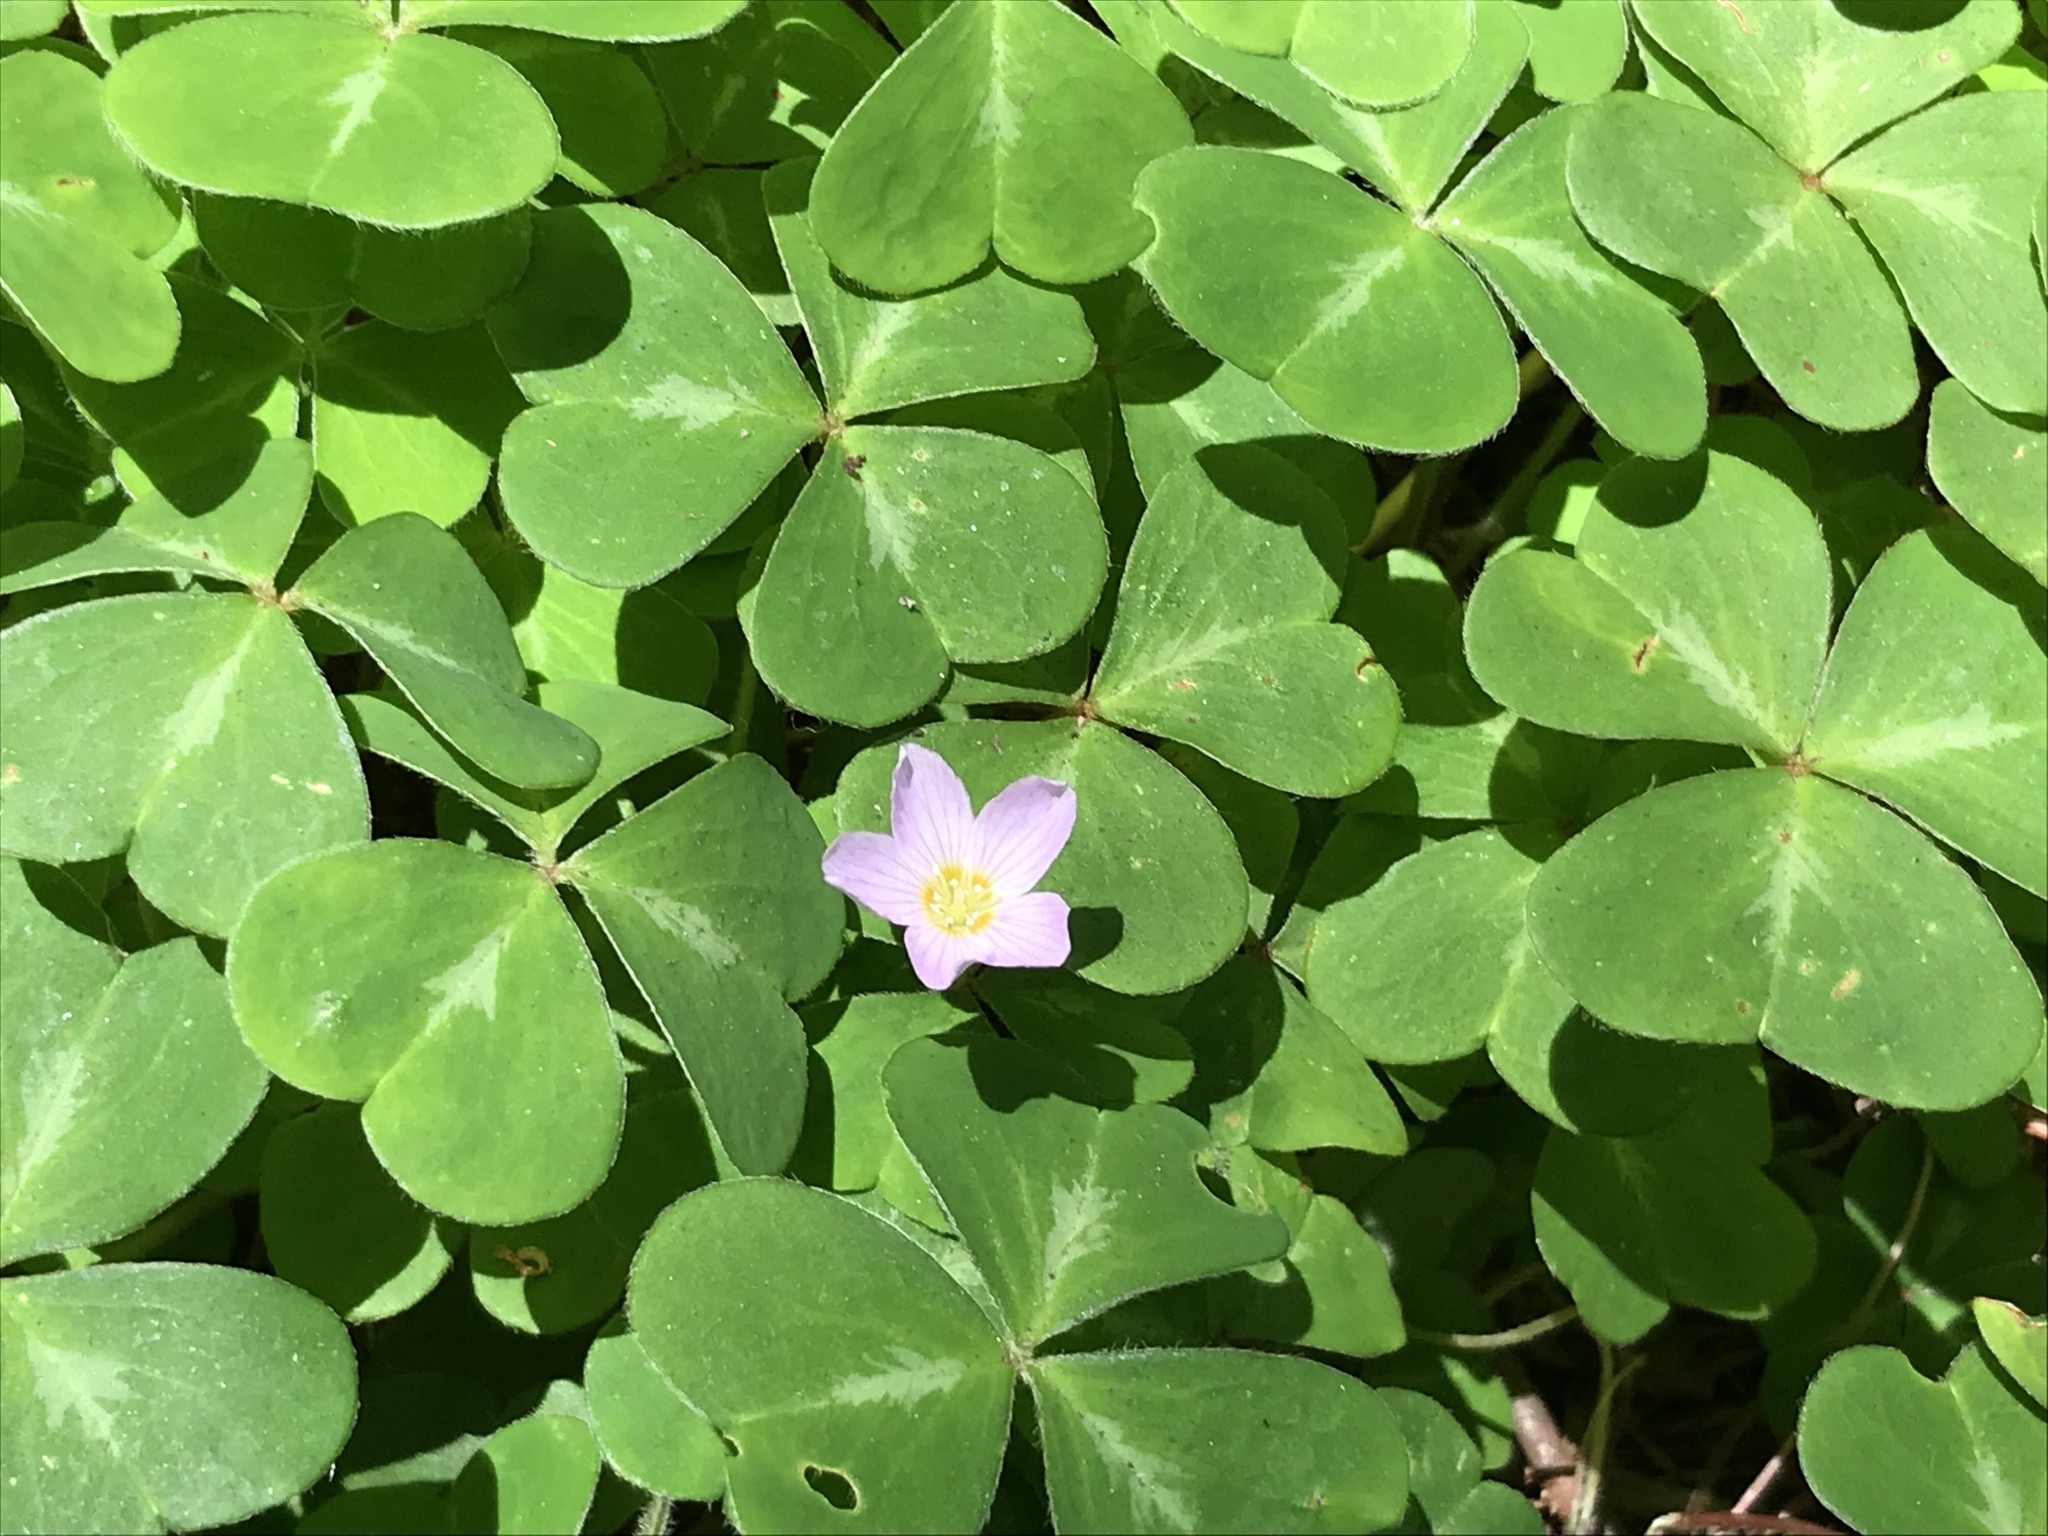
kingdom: Plantae
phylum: Tracheophyta
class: Magnoliopsida
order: Oxalidales
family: Oxalidaceae
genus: Oxalis
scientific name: Oxalis oregana
